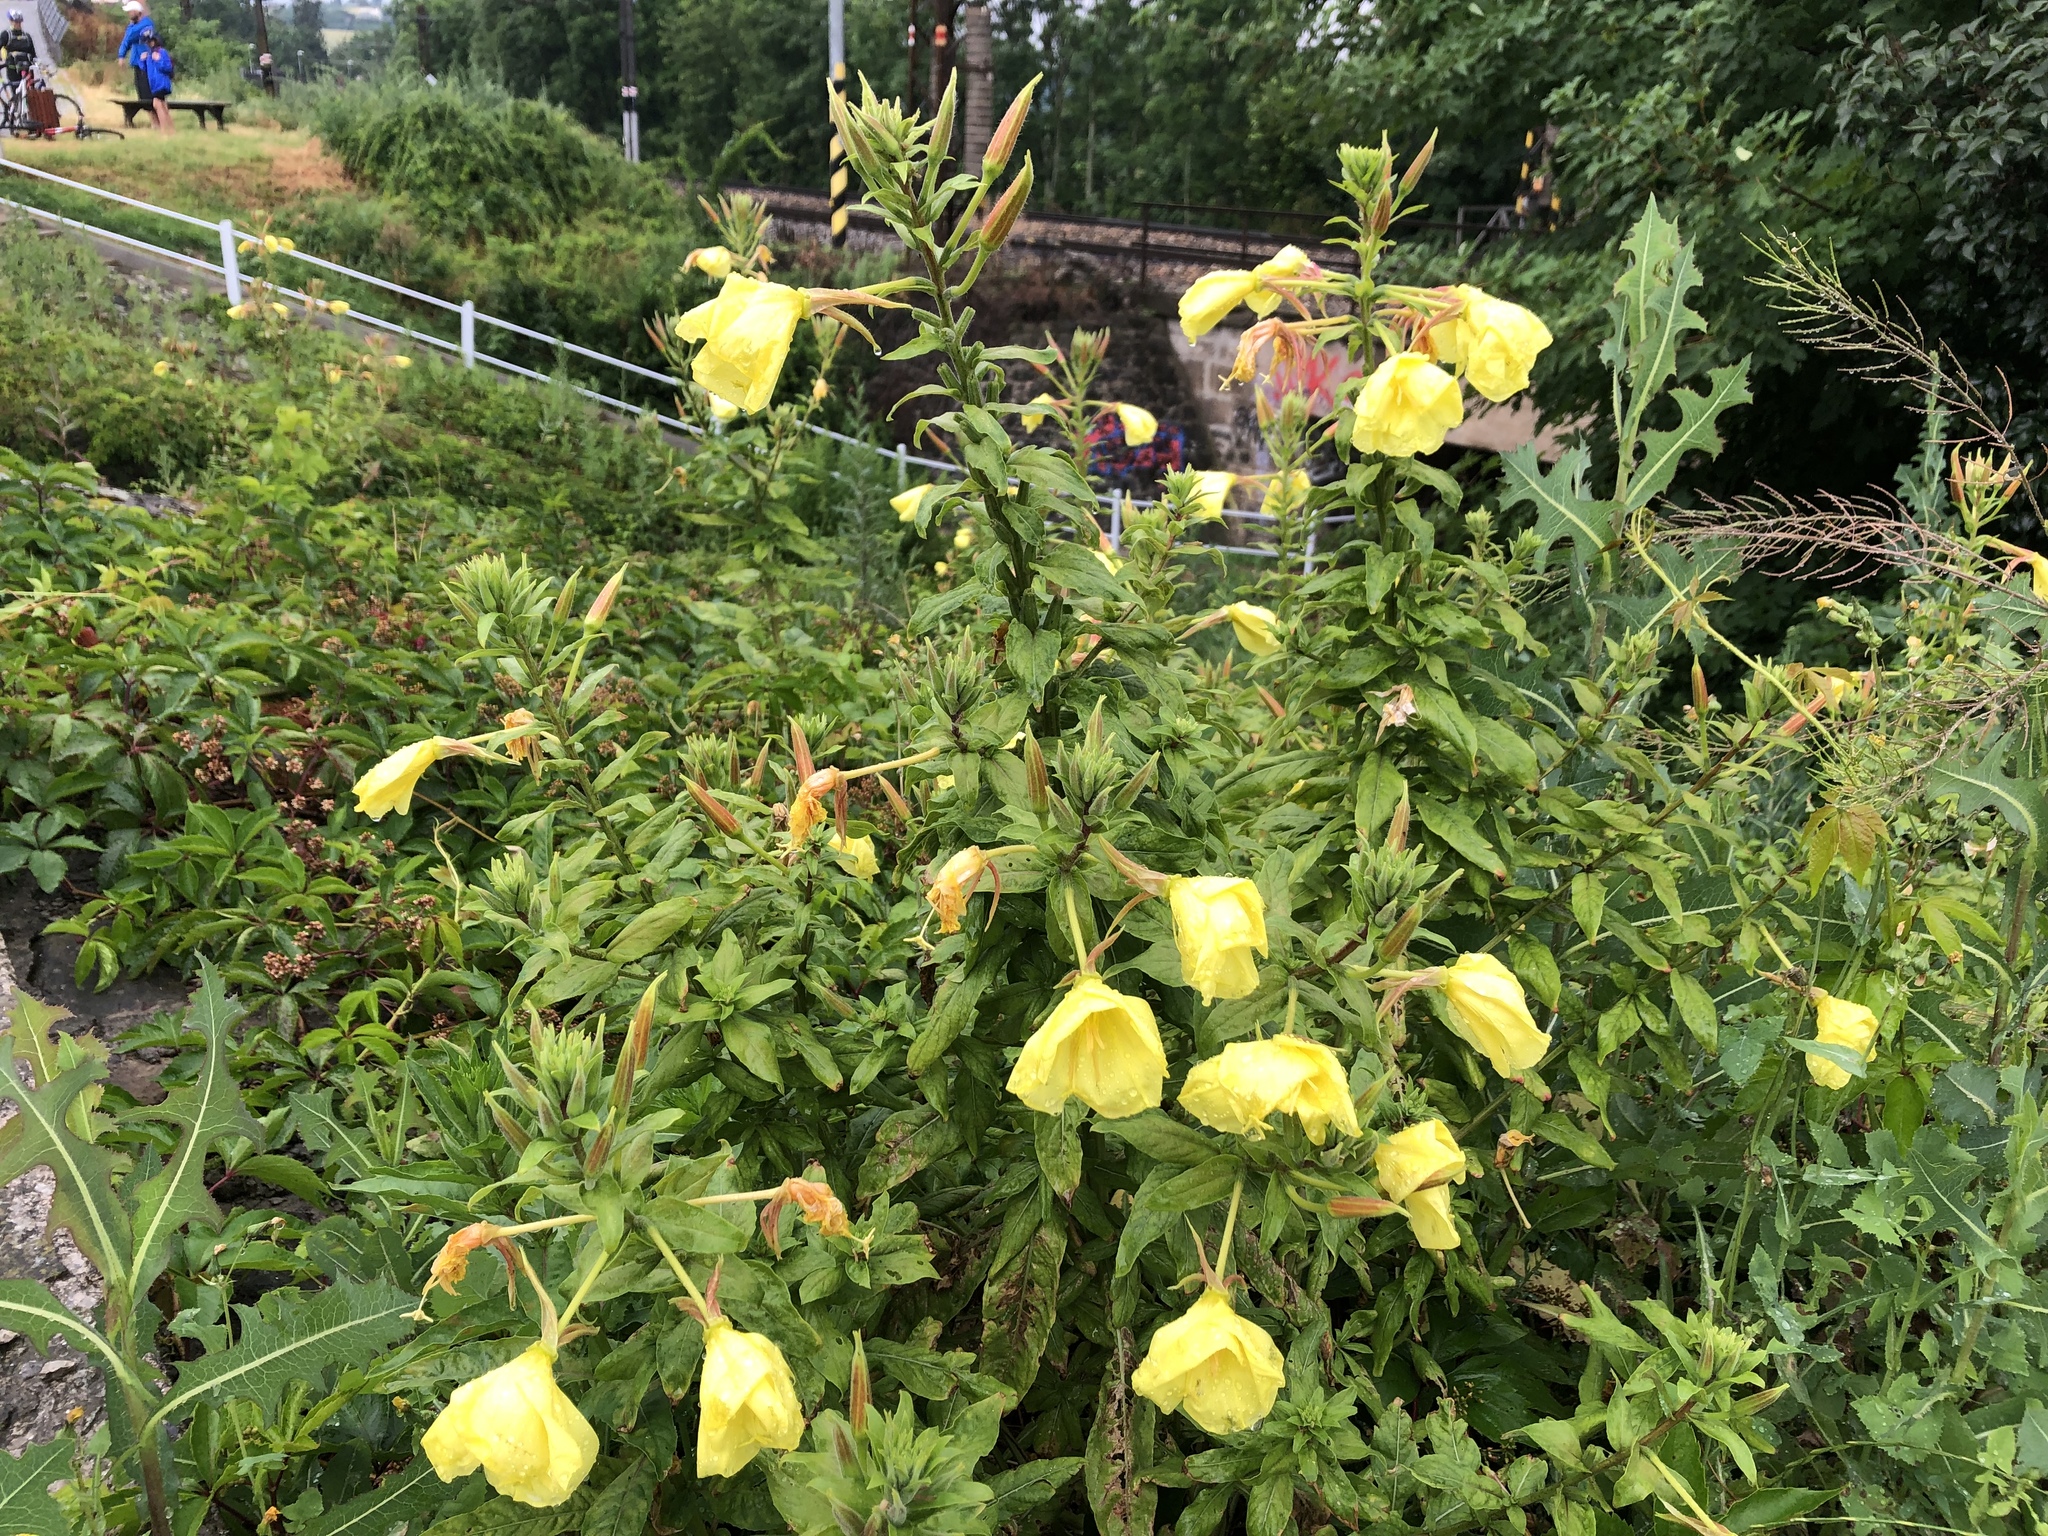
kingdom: Plantae
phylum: Tracheophyta
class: Magnoliopsida
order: Myrtales
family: Onagraceae
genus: Oenothera
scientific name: Oenothera glazioviana
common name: Large-flowered evening-primrose
